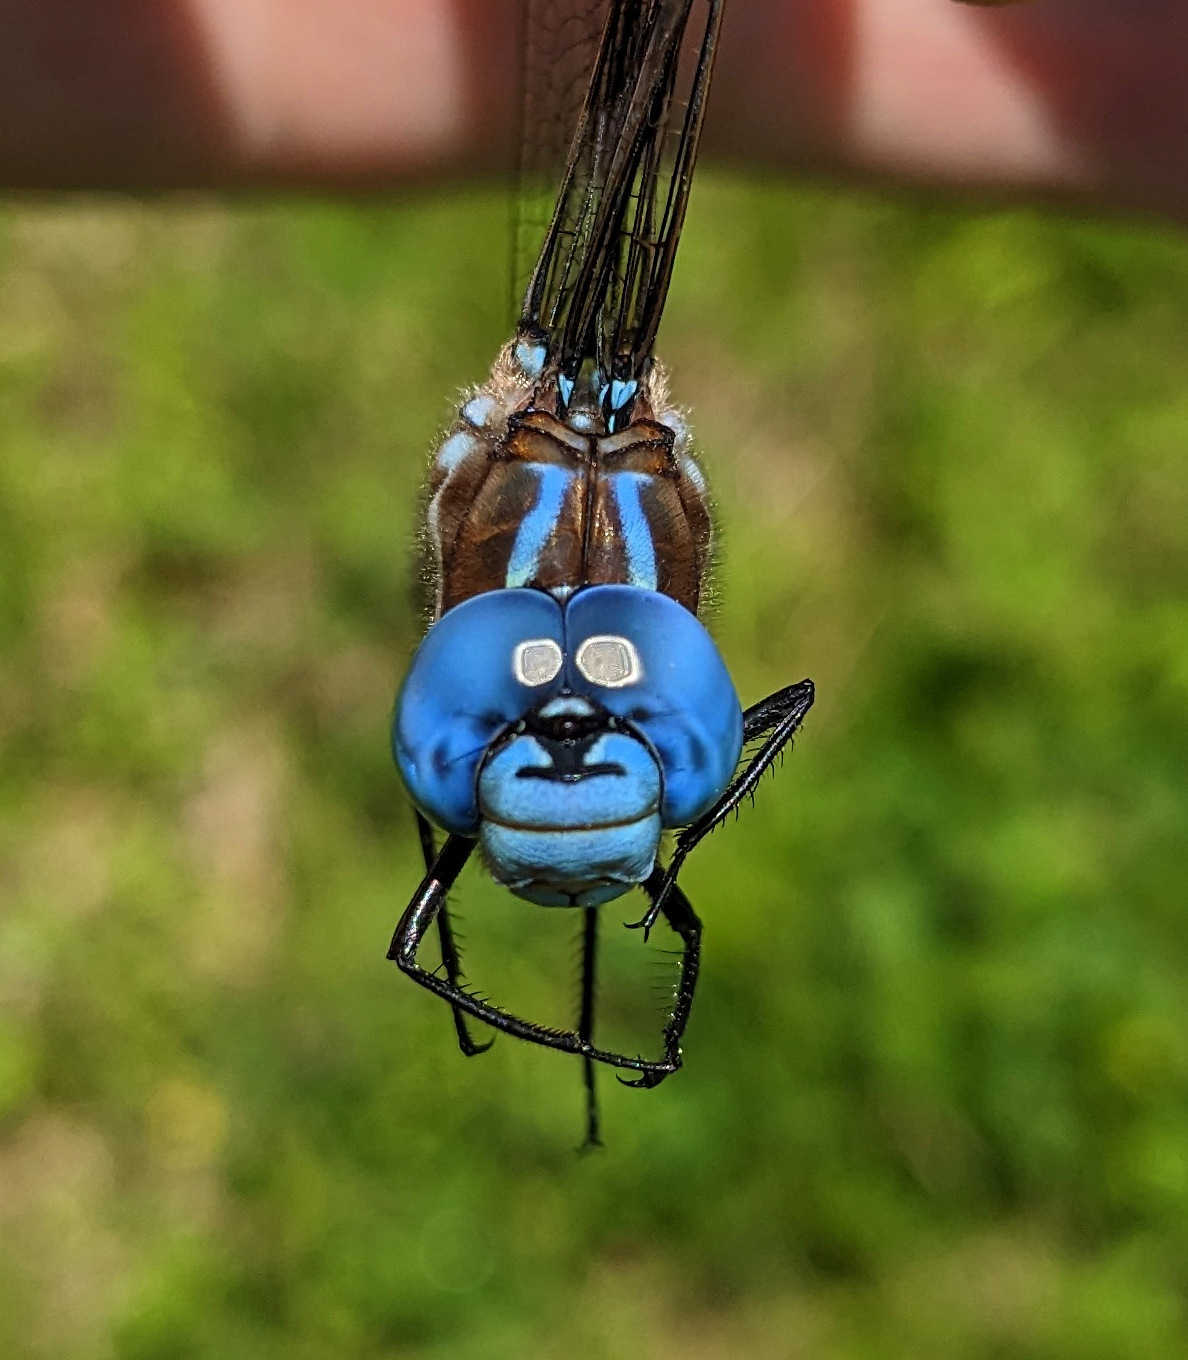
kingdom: Animalia
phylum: Arthropoda
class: Insecta
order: Odonata
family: Aeshnidae
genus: Rhionaeschna
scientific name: Rhionaeschna mutata
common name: Spatterdock darner
